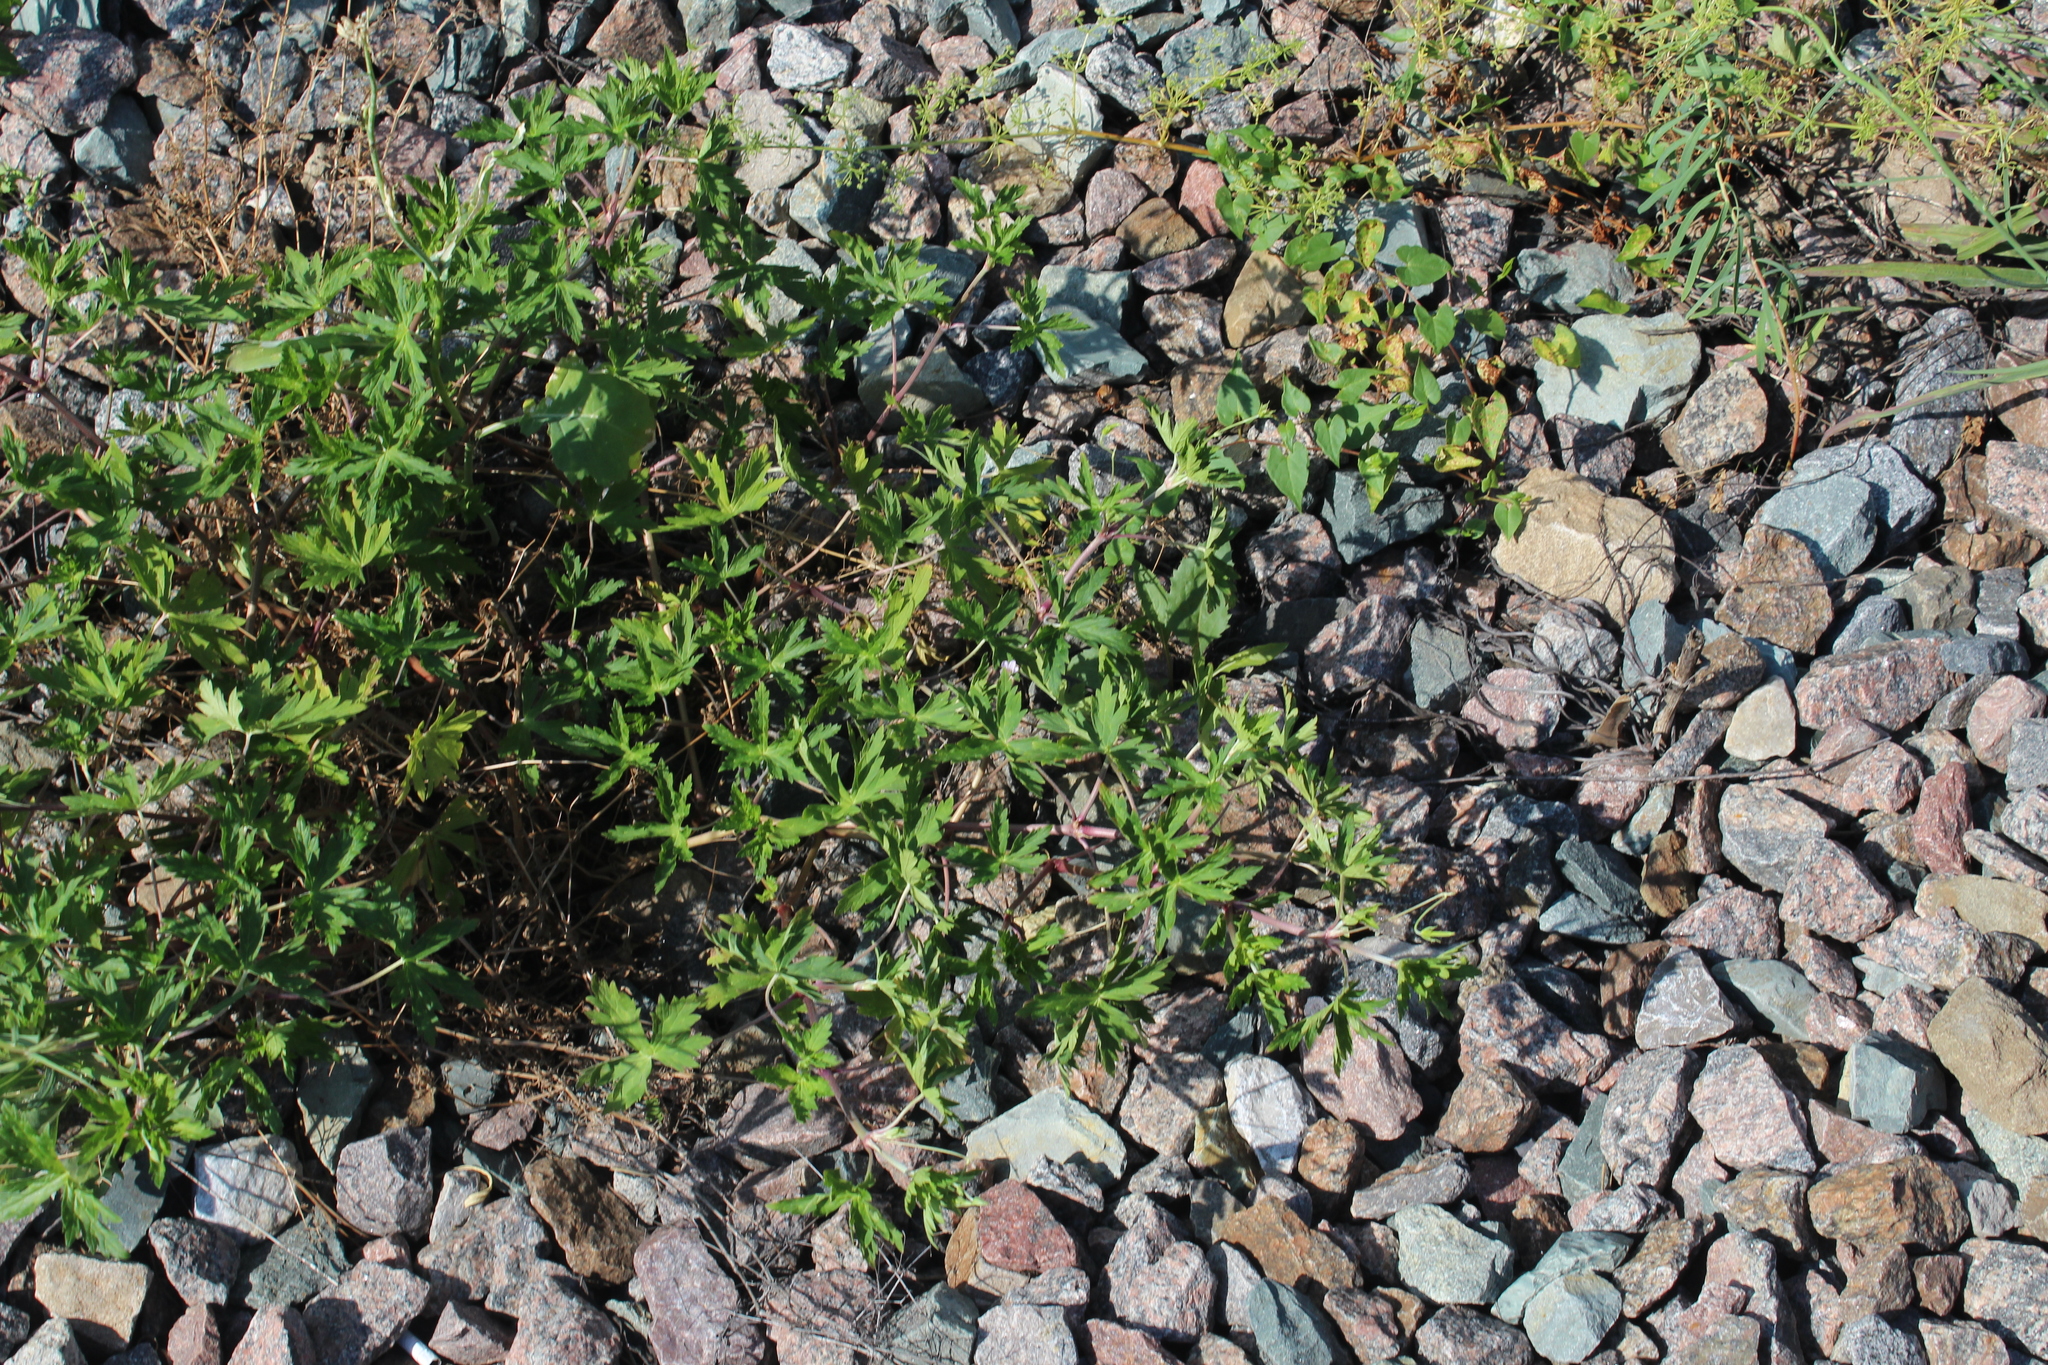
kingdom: Plantae
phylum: Tracheophyta
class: Magnoliopsida
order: Geraniales
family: Geraniaceae
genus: Geranium
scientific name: Geranium sibiricum
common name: Siberian crane's-bill
